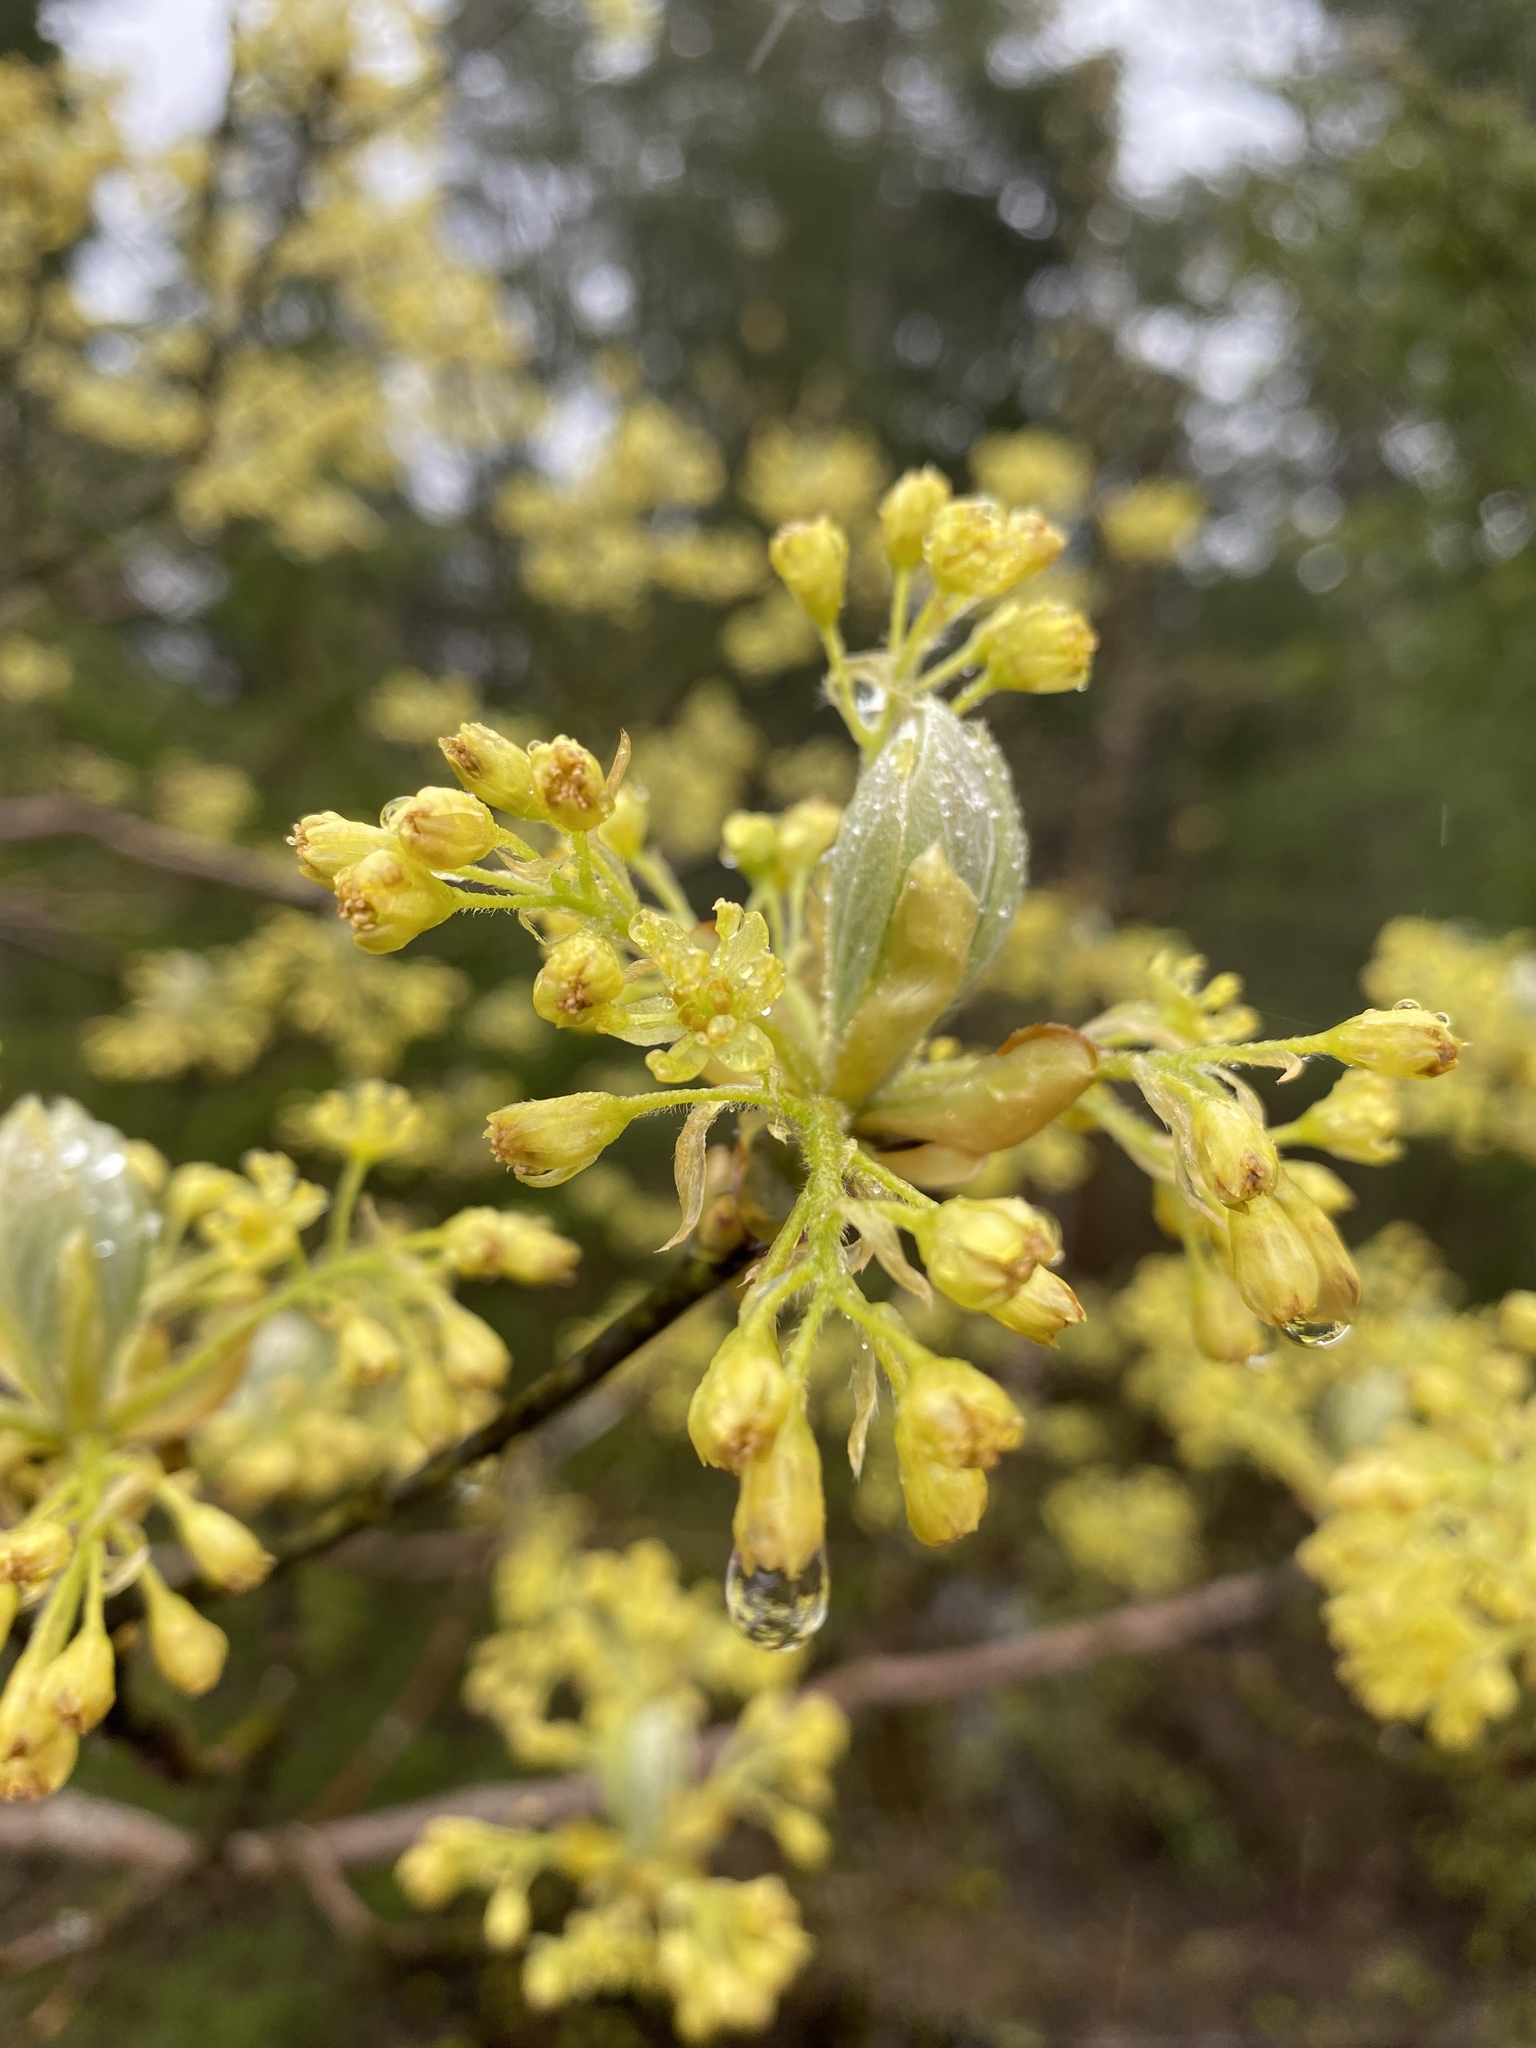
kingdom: Plantae
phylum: Tracheophyta
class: Magnoliopsida
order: Laurales
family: Lauraceae
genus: Sassafras
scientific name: Sassafras albidum
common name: Sassafras
